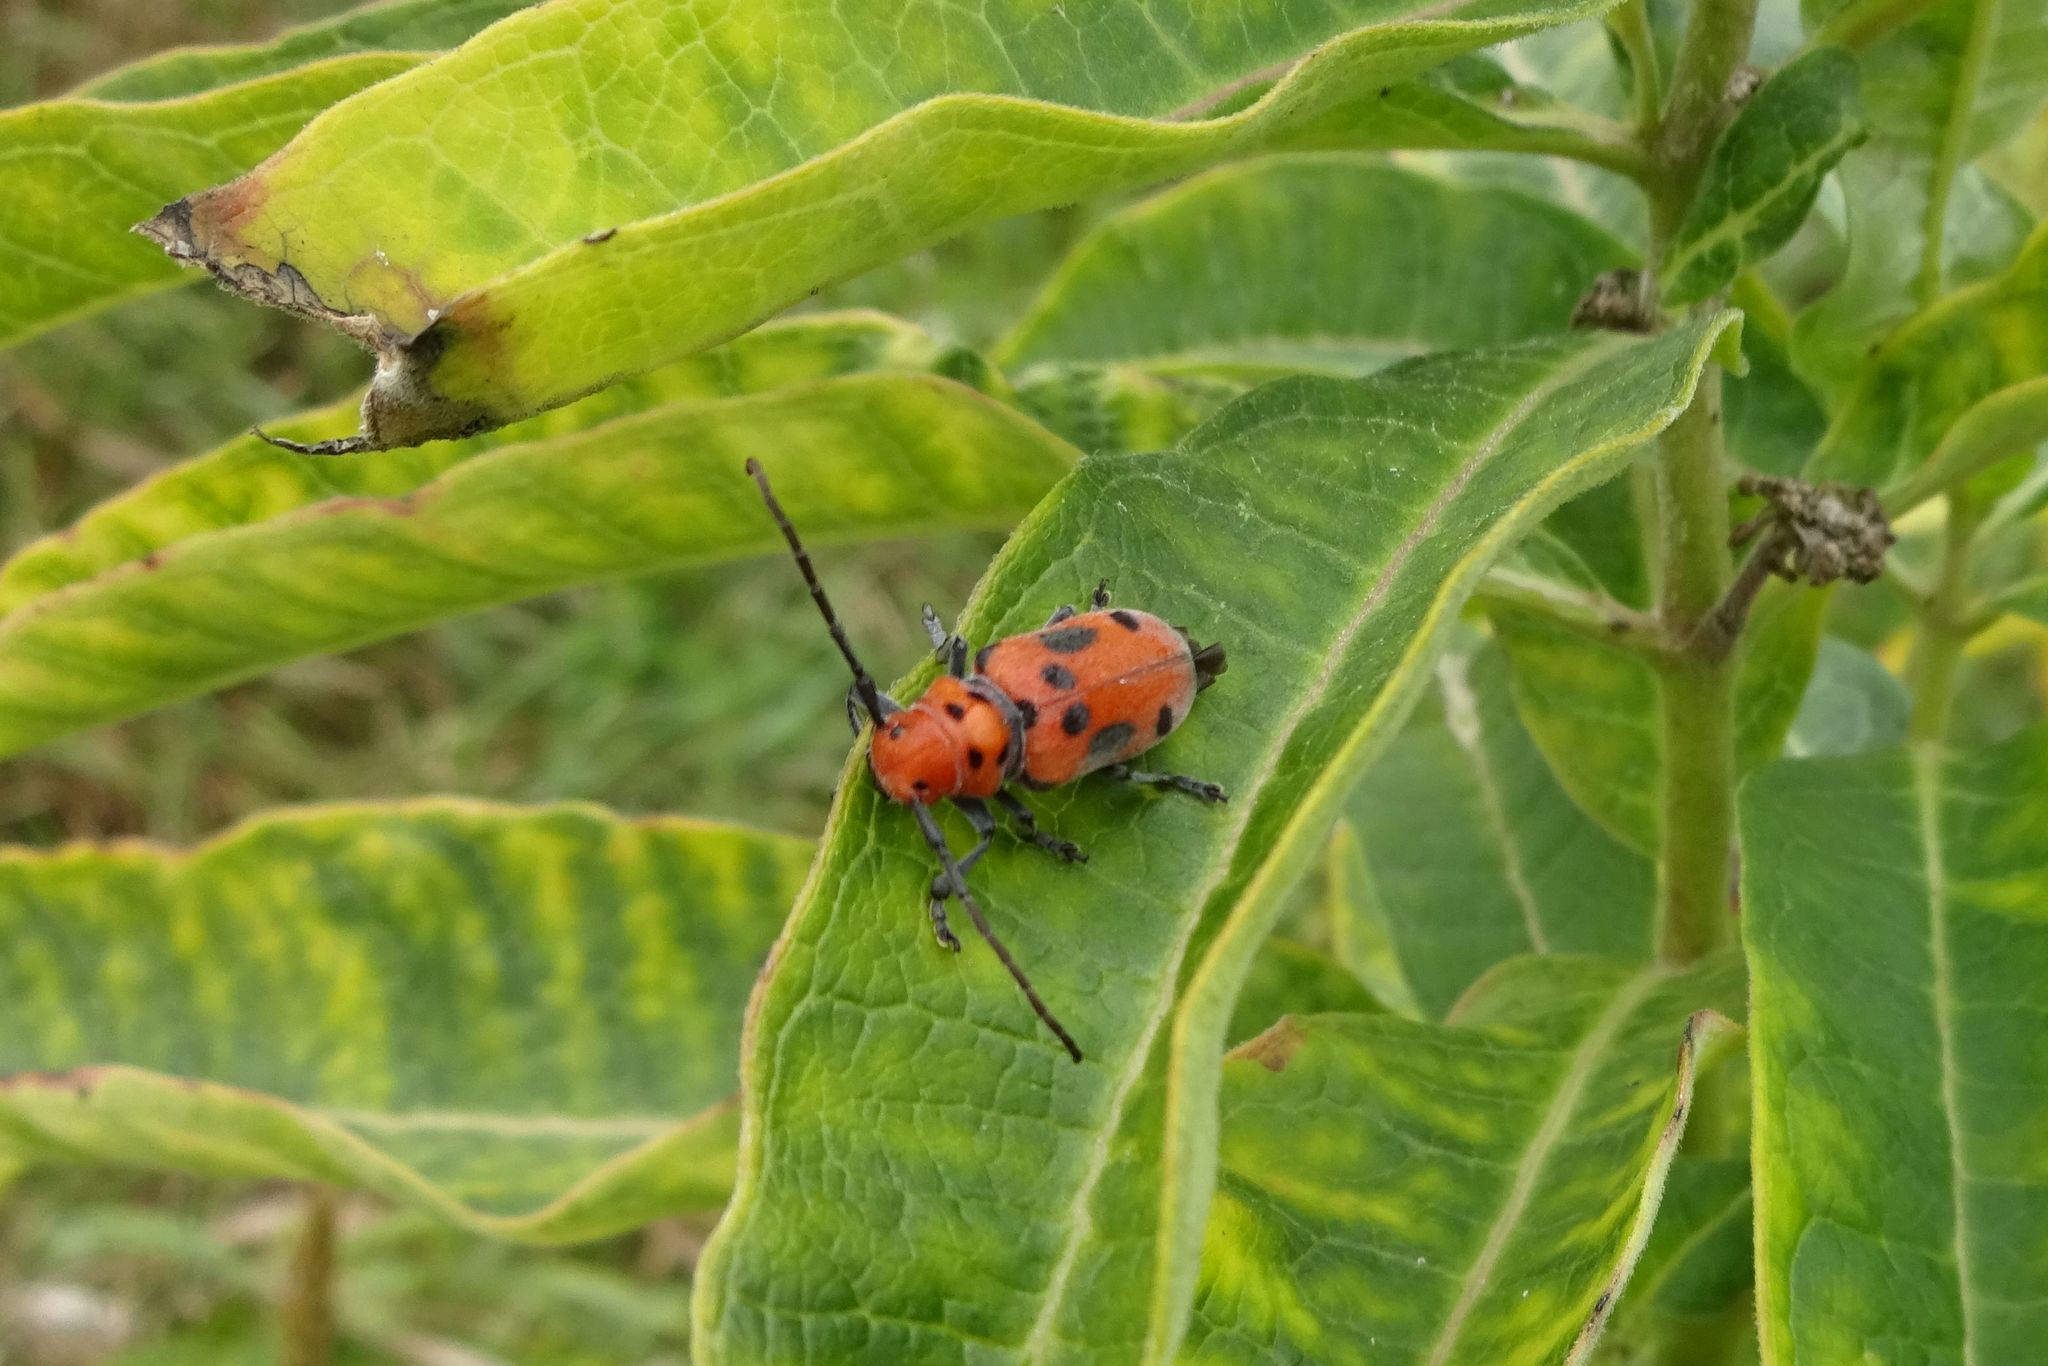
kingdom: Animalia
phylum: Arthropoda
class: Insecta
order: Coleoptera
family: Cerambycidae
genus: Tetraopes
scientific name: Tetraopes tetrophthalmus
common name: Red milkweed beetle
